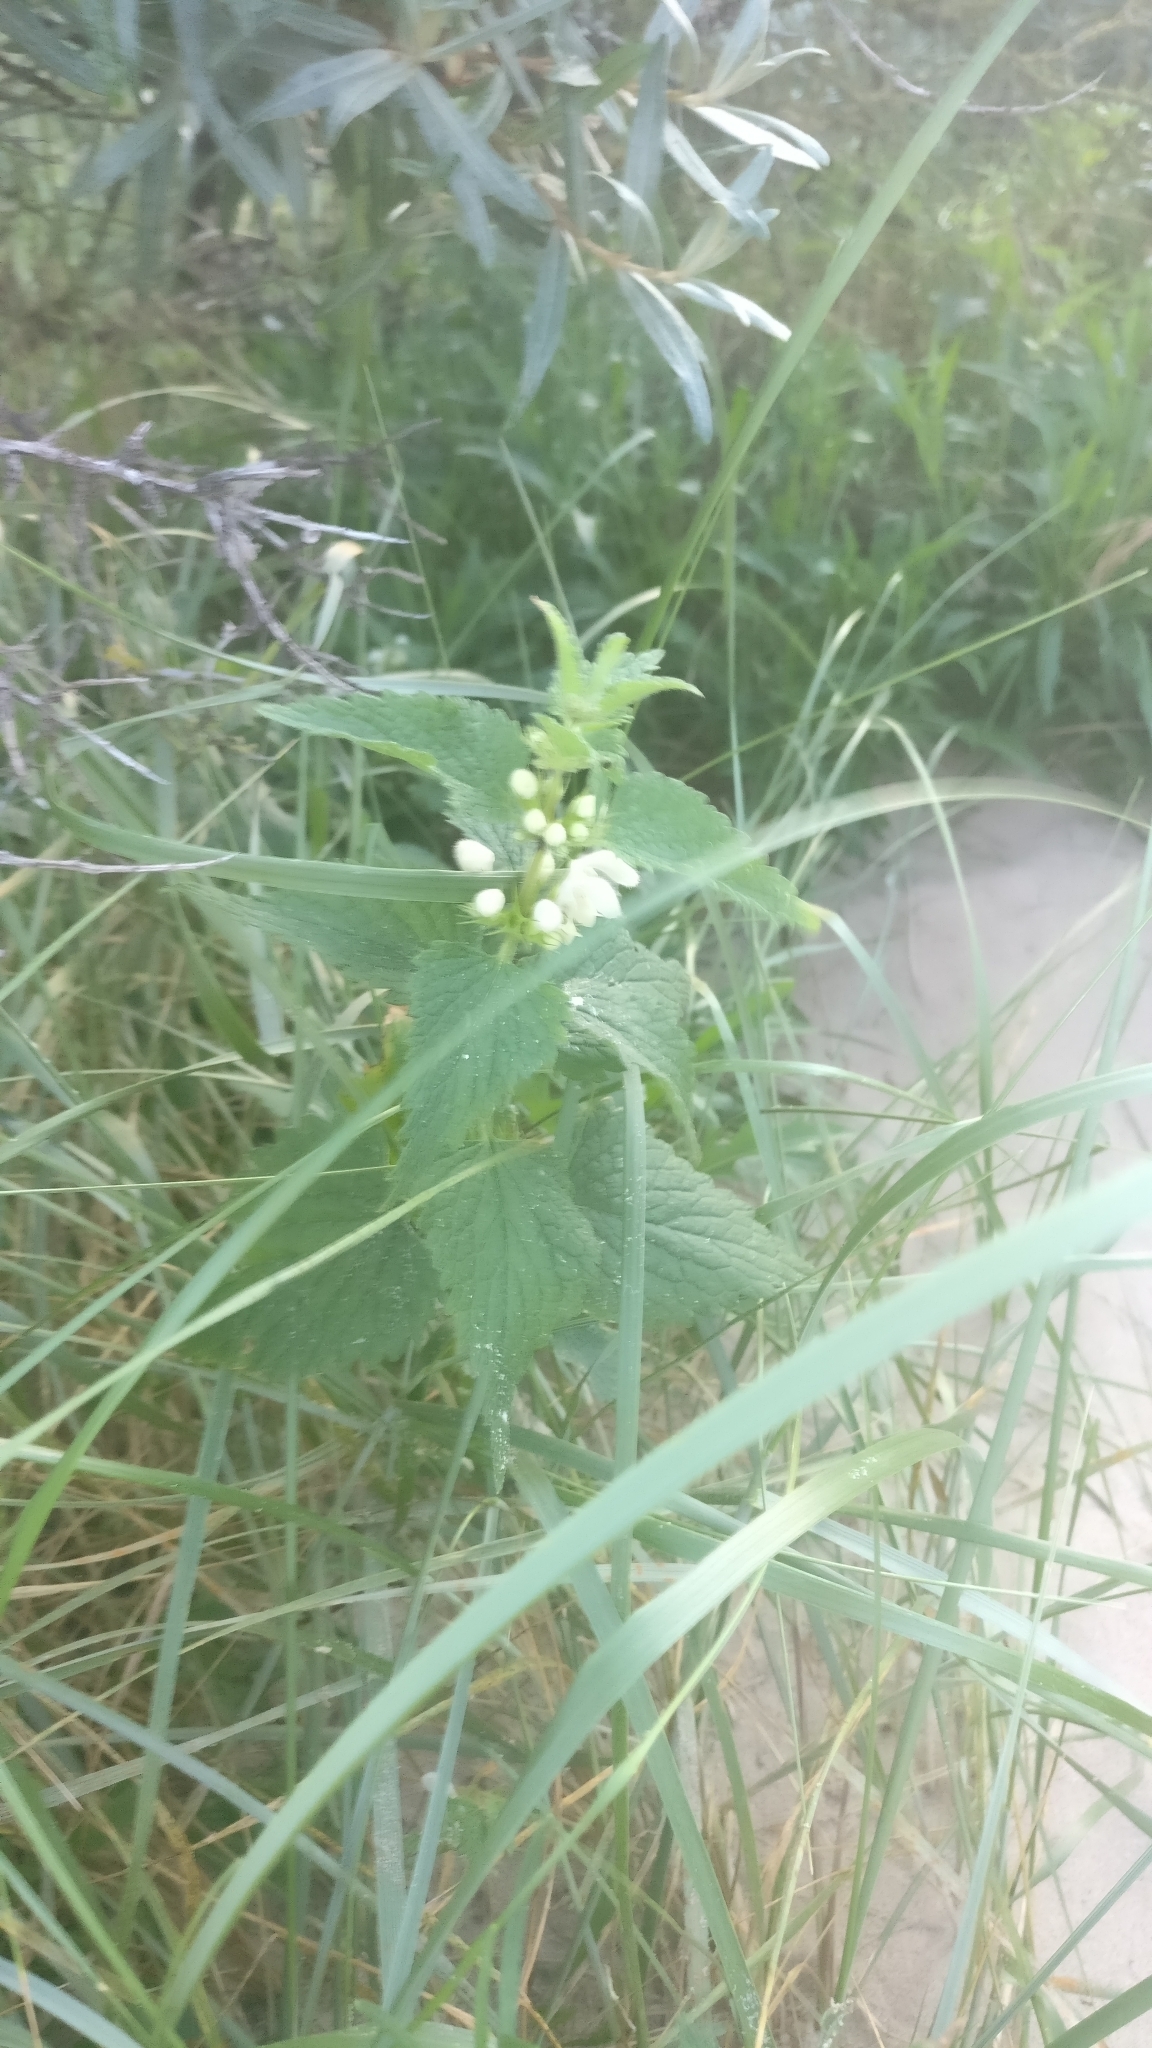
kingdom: Plantae
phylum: Tracheophyta
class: Magnoliopsida
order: Lamiales
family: Lamiaceae
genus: Lamium
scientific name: Lamium album
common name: White dead-nettle
